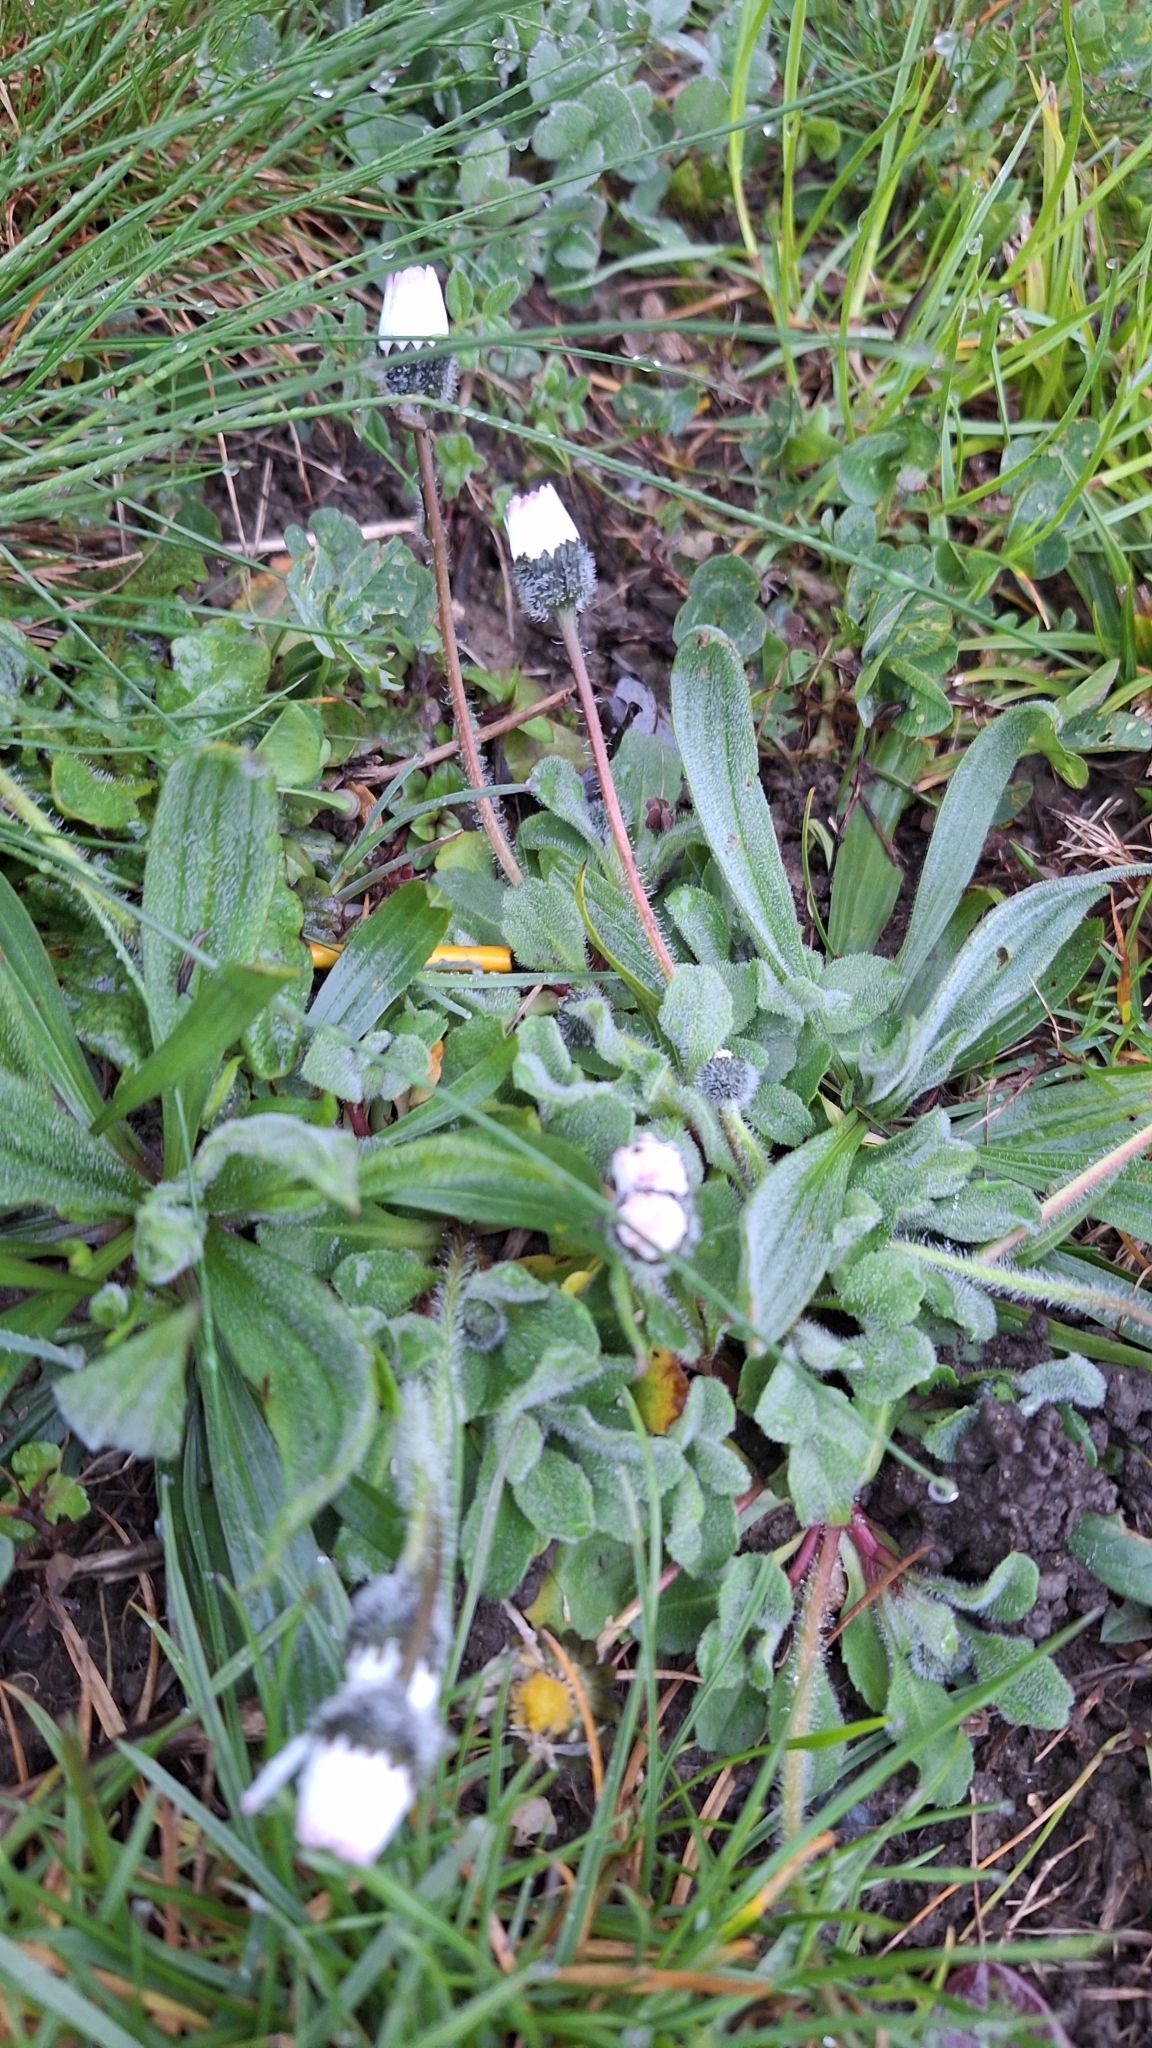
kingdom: Plantae
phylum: Tracheophyta
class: Magnoliopsida
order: Asterales
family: Asteraceae
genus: Bellis
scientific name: Bellis perennis
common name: Lawndaisy
